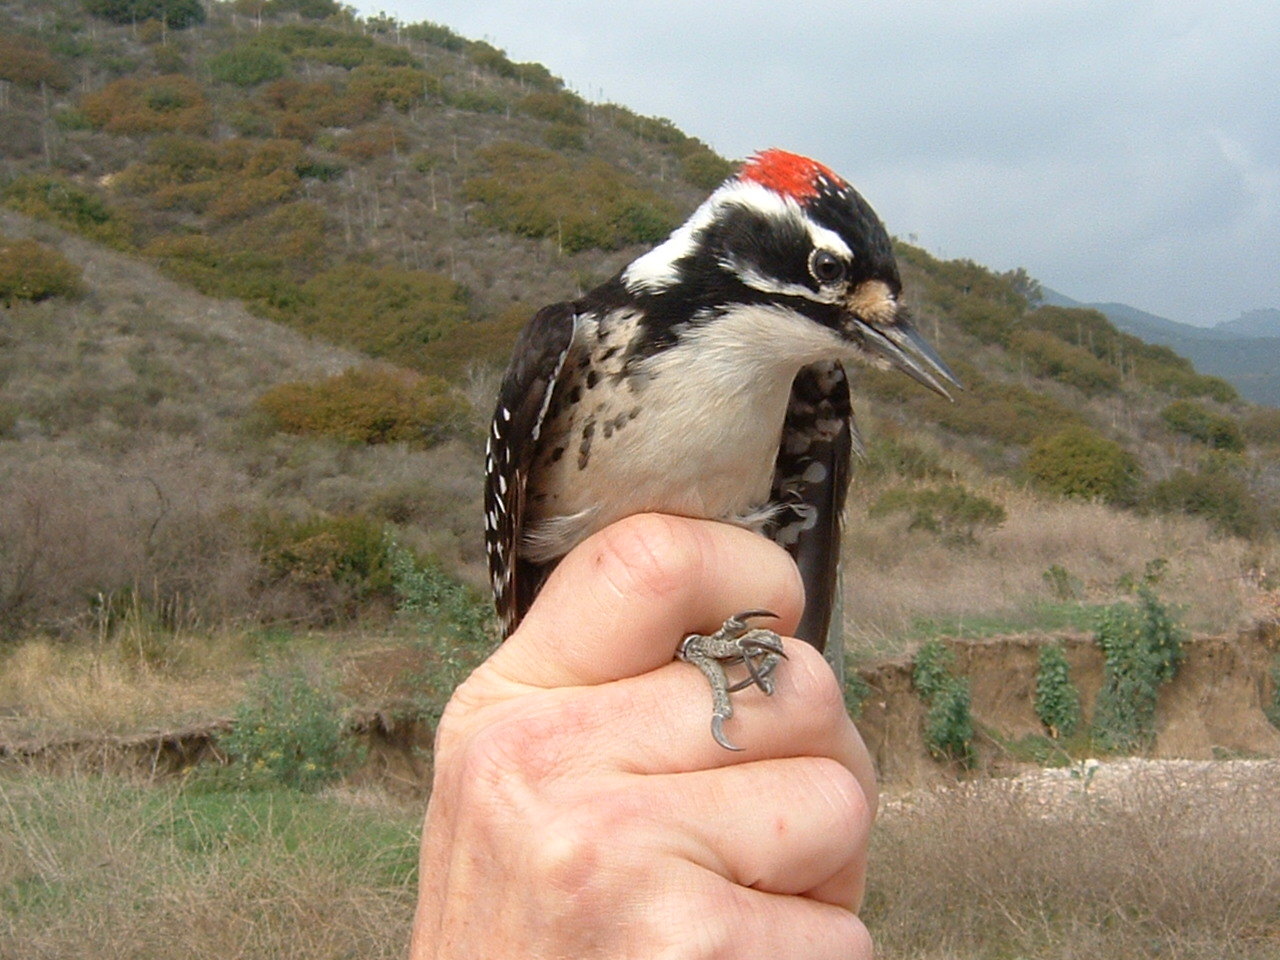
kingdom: Animalia
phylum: Chordata
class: Aves
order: Piciformes
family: Picidae
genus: Dryobates
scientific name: Dryobates nuttallii
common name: Nuttall's woodpecker
